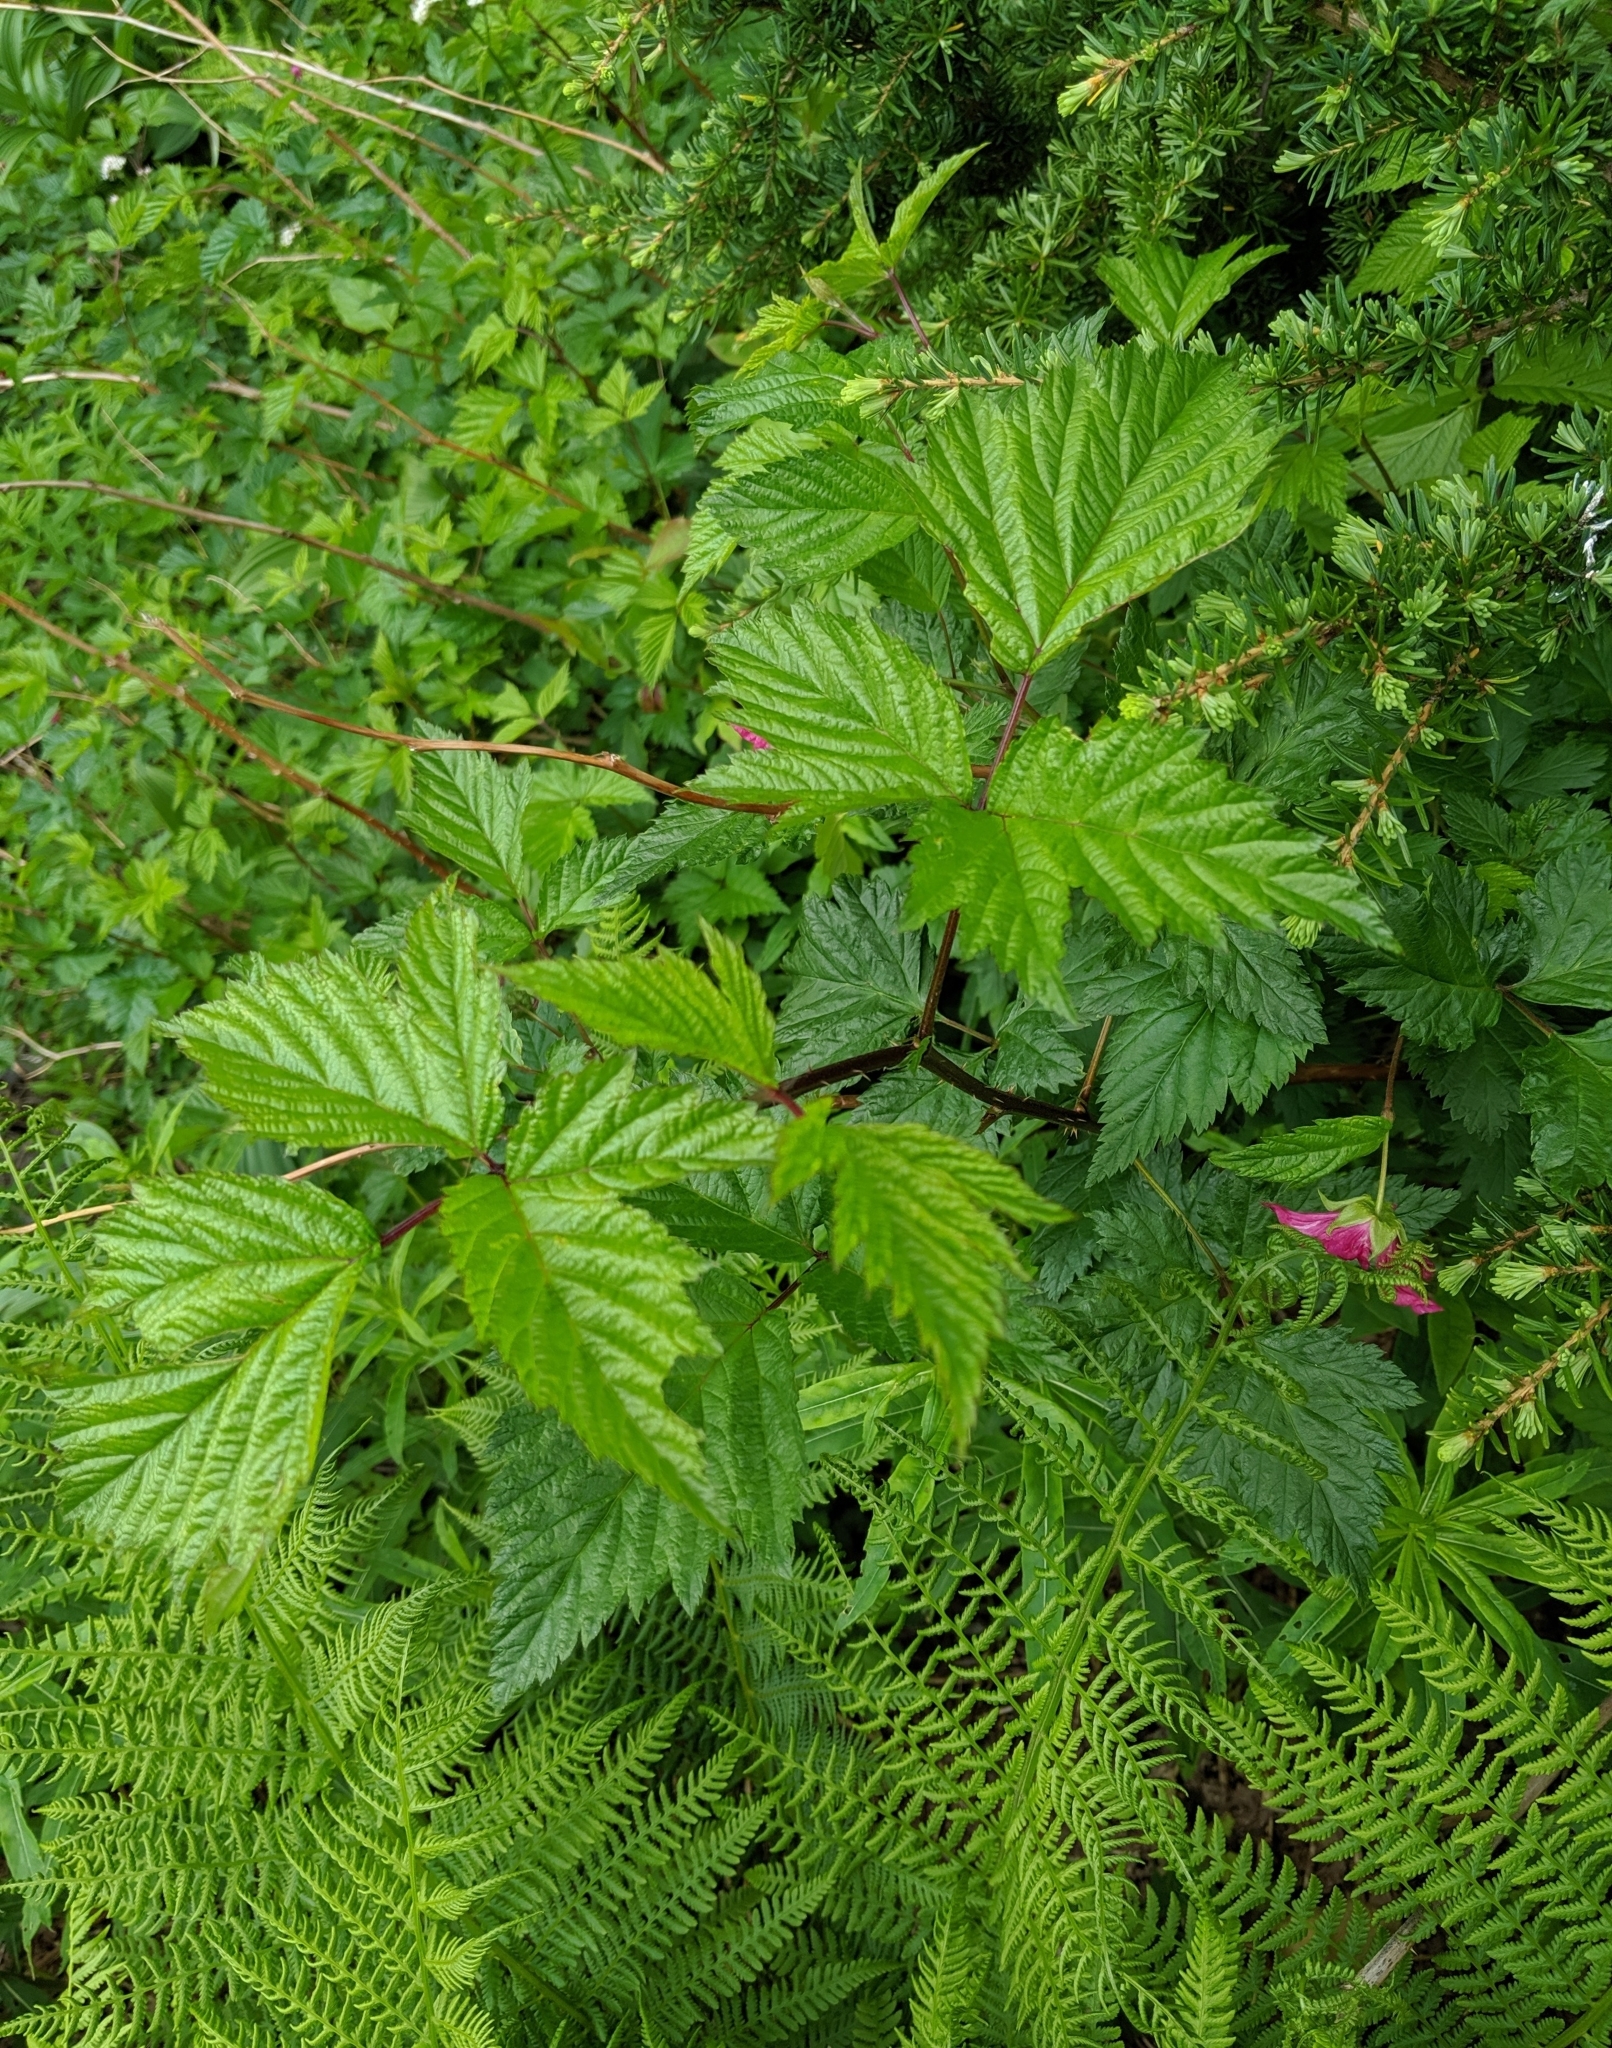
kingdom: Plantae
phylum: Tracheophyta
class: Magnoliopsida
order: Rosales
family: Rosaceae
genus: Rubus
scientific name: Rubus spectabilis
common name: Salmonberry
